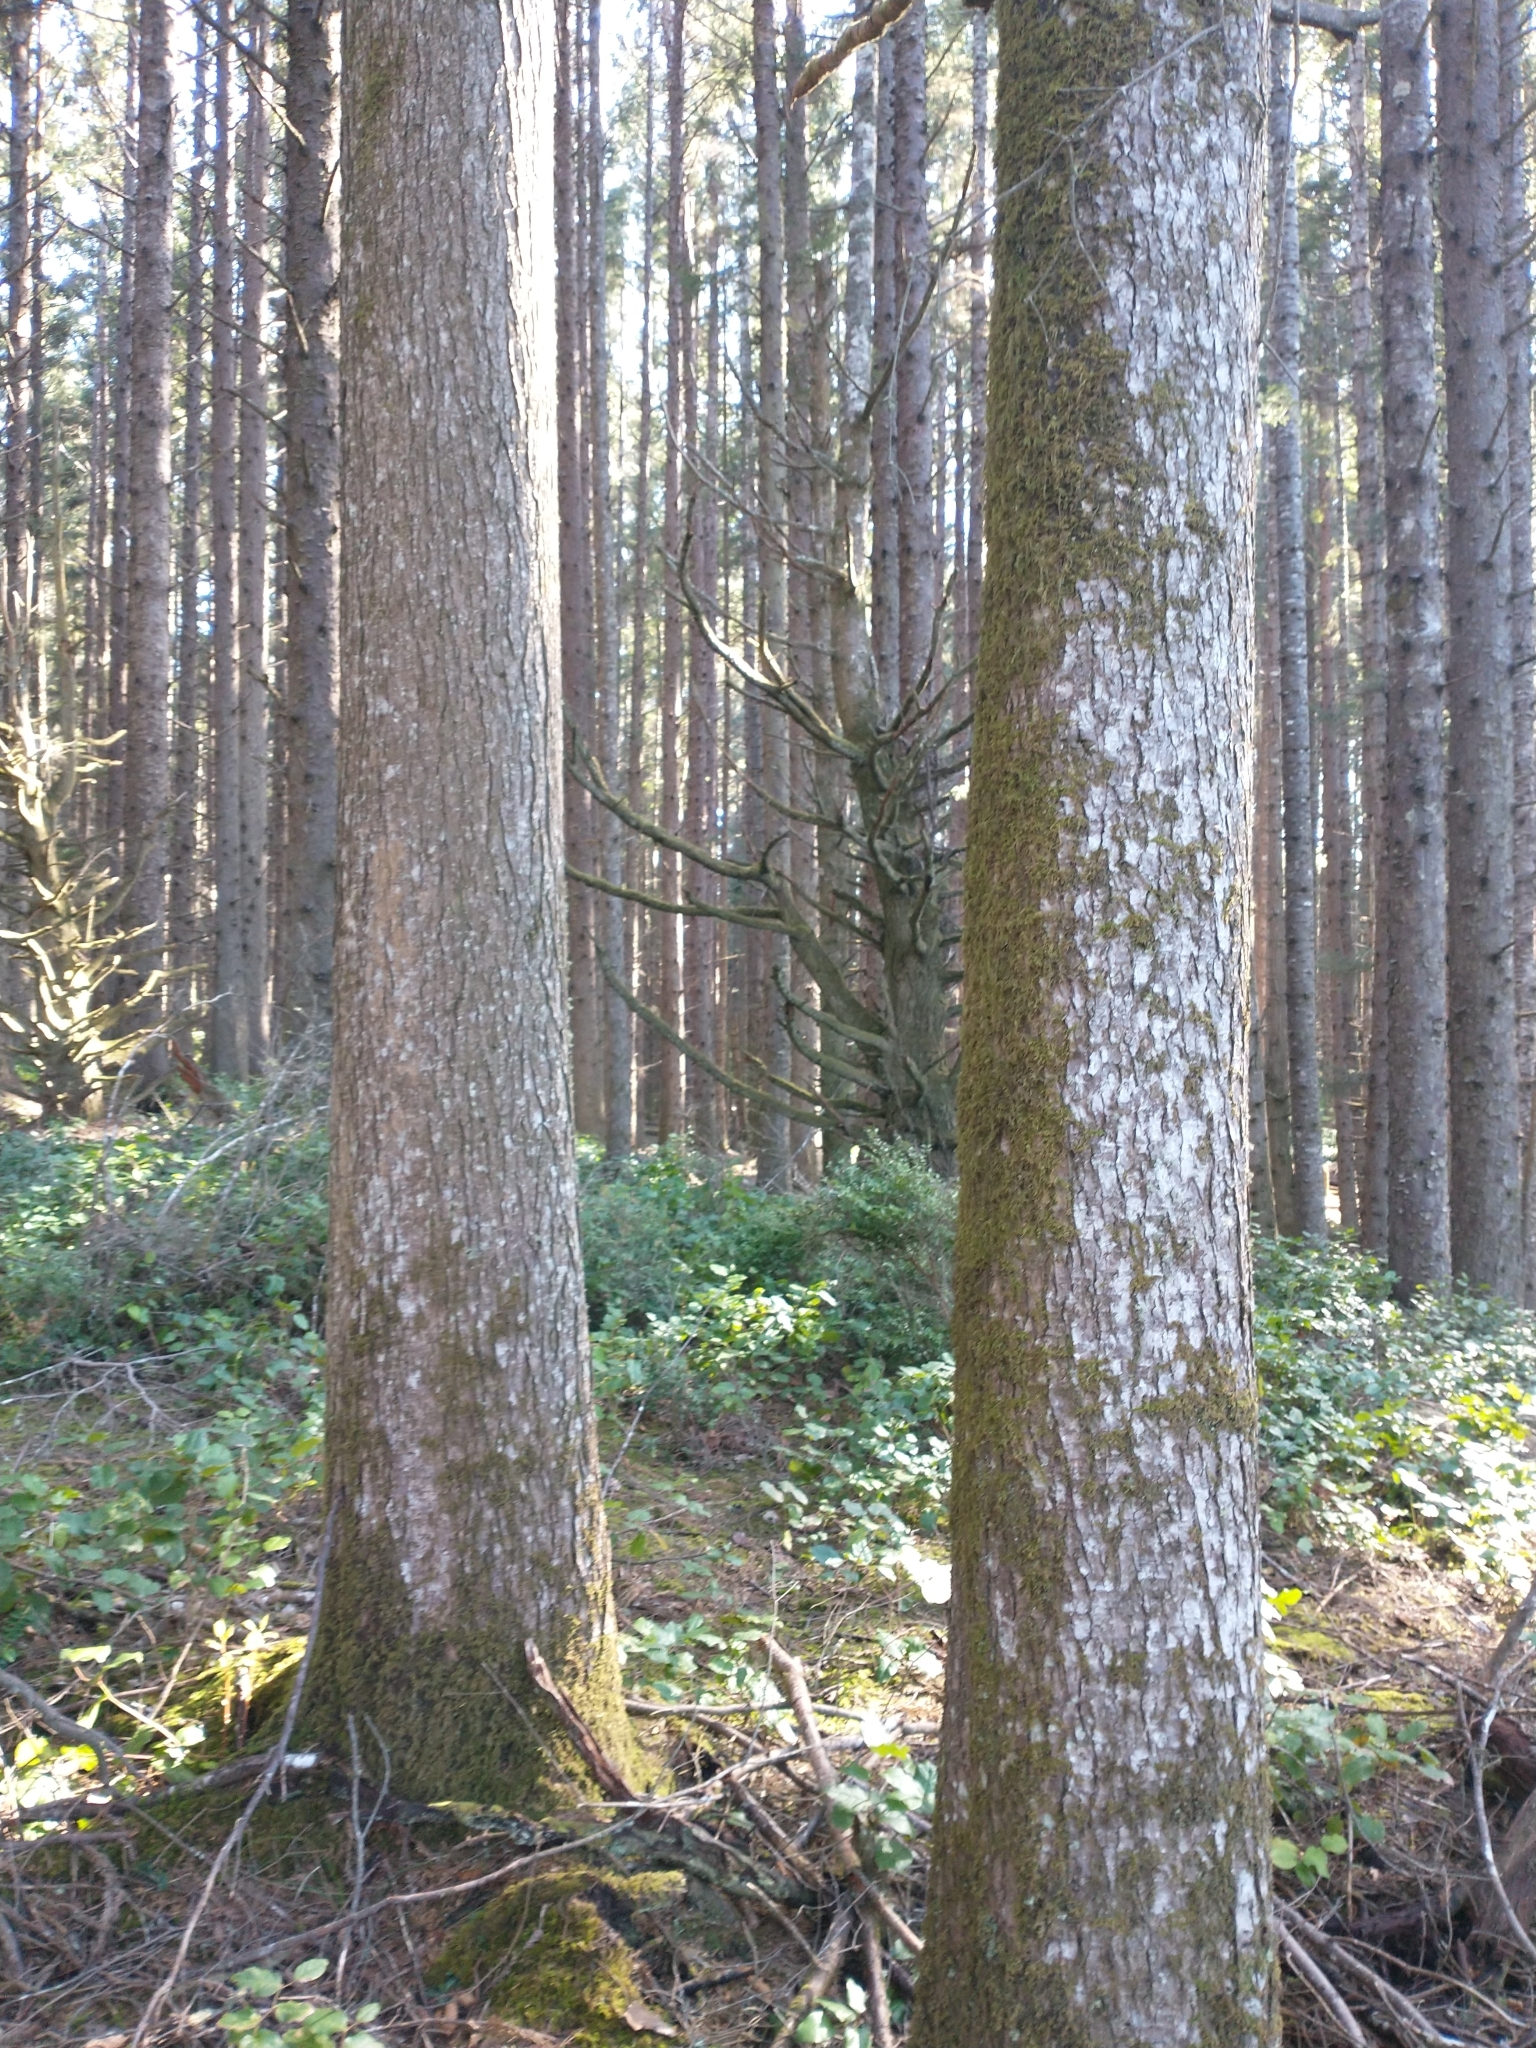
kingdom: Plantae
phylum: Tracheophyta
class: Pinopsida
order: Pinales
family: Pinaceae
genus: Tsuga
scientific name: Tsuga heterophylla
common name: Western hemlock
